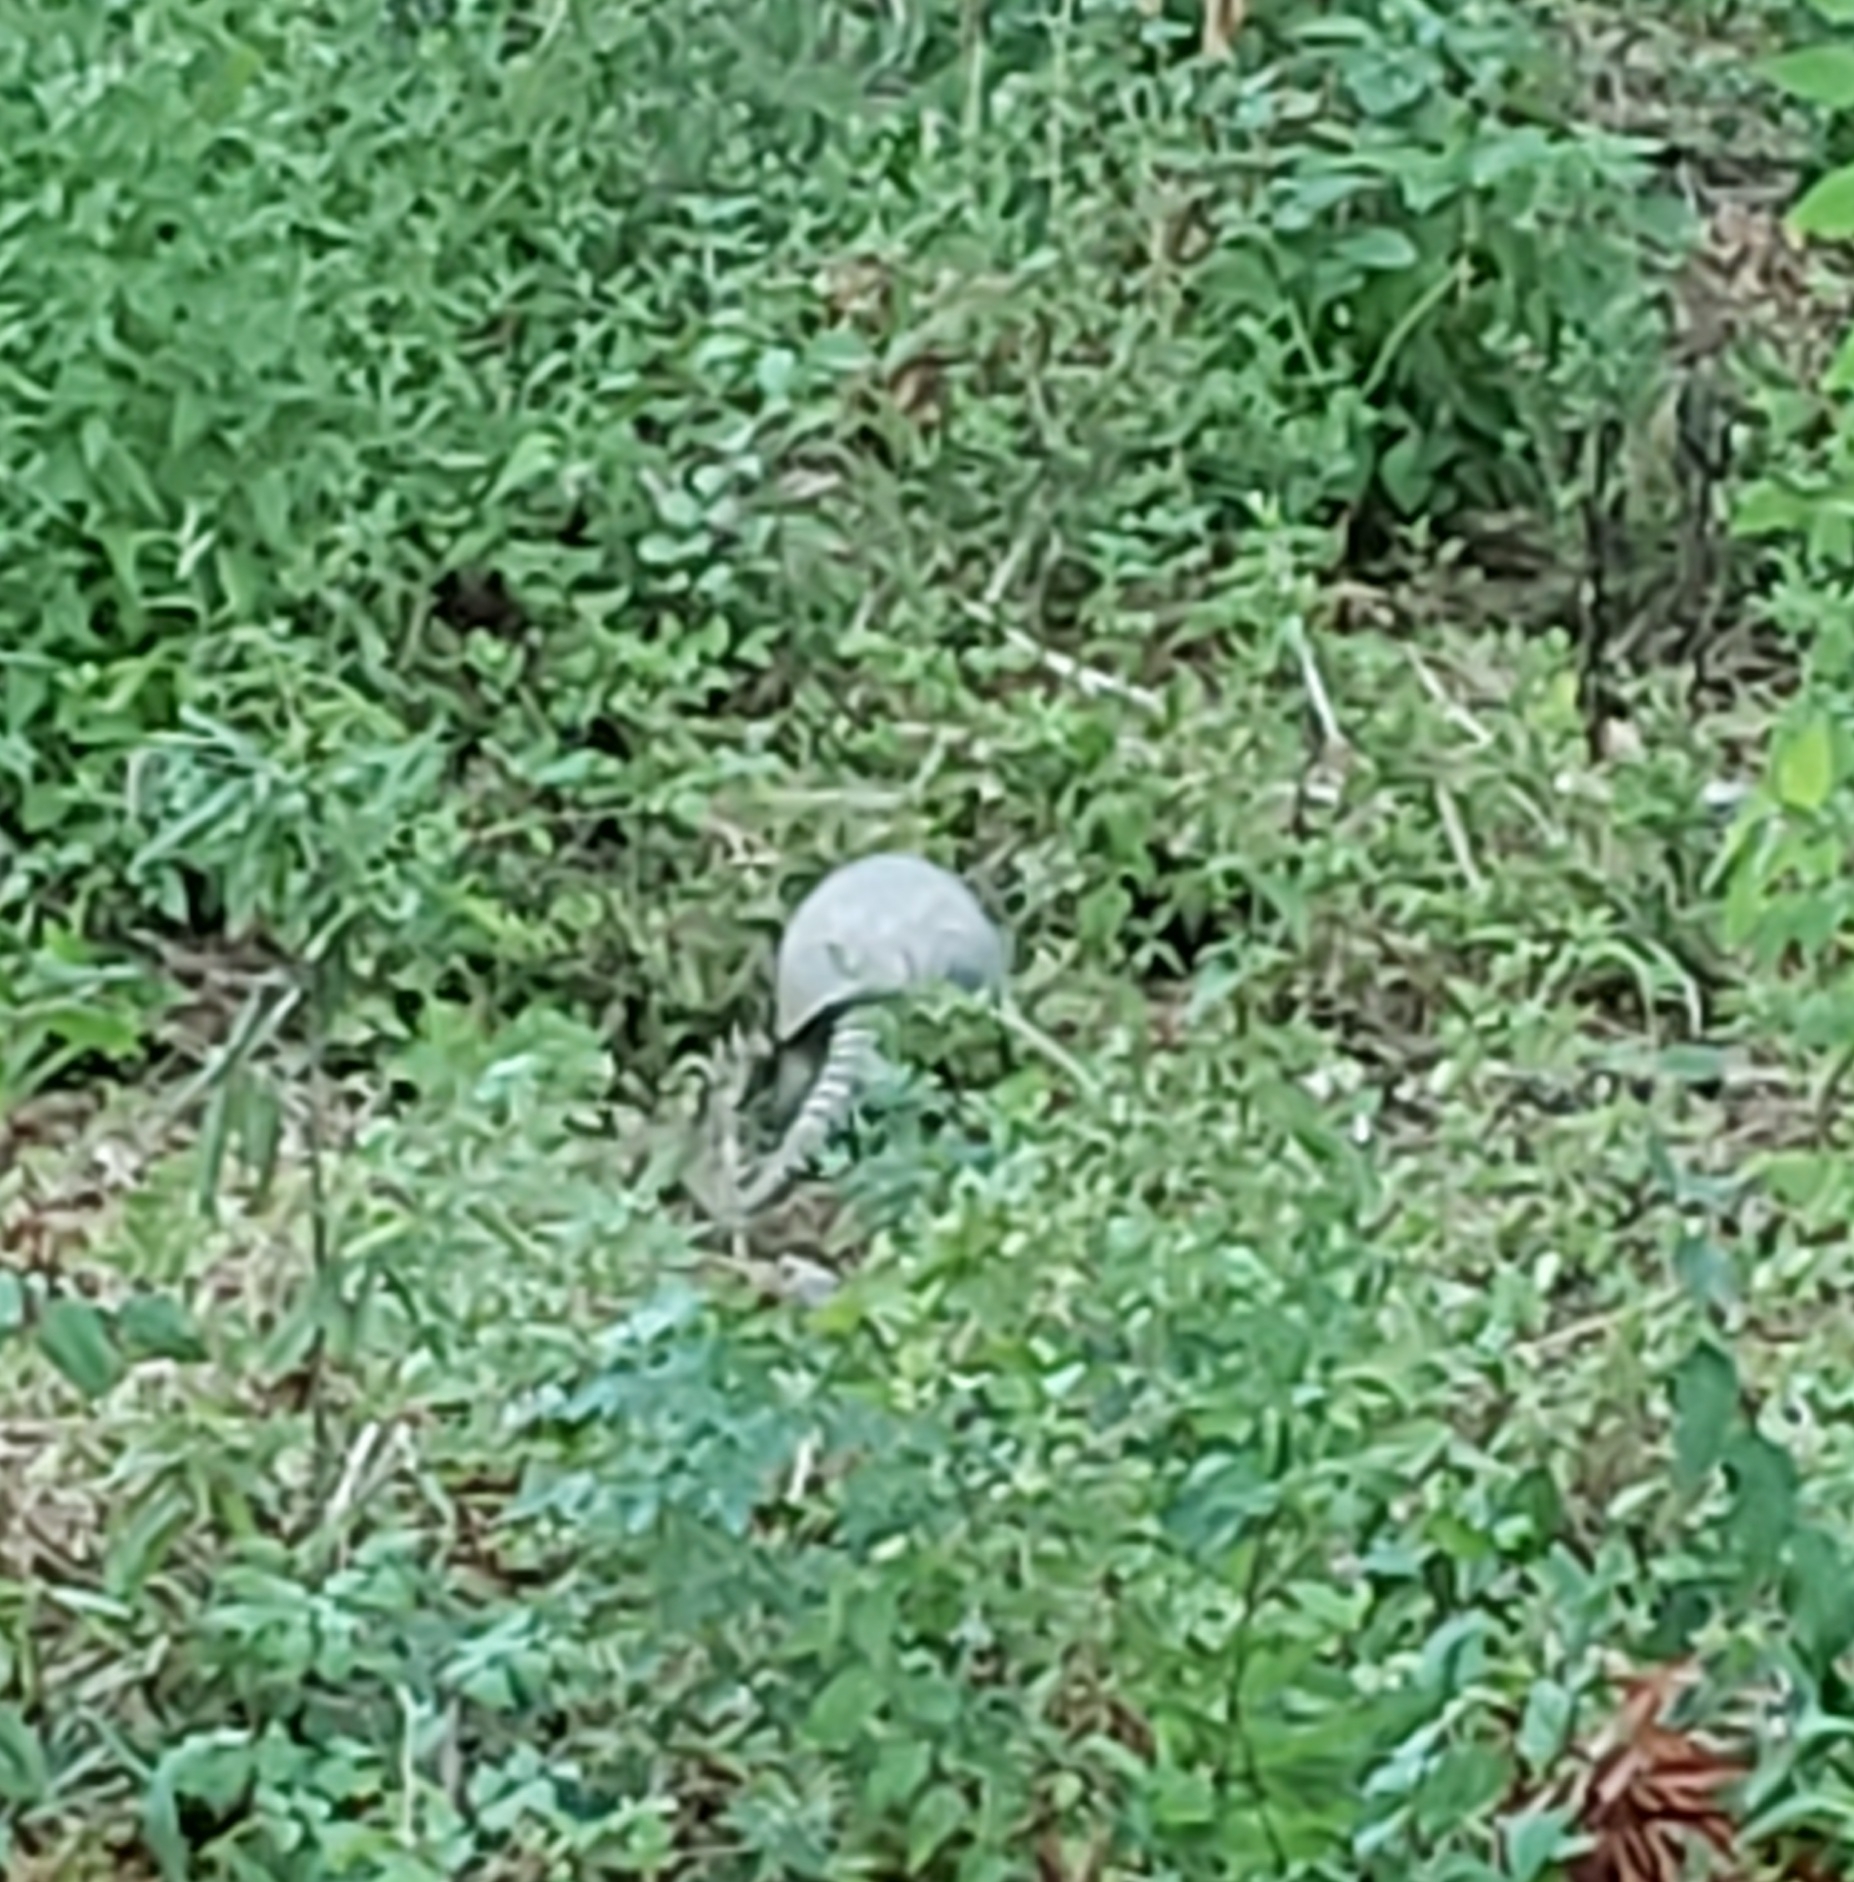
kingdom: Animalia
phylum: Chordata
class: Mammalia
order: Cingulata
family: Dasypodidae
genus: Dasypus
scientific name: Dasypus novemcinctus
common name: Nine-banded armadillo
